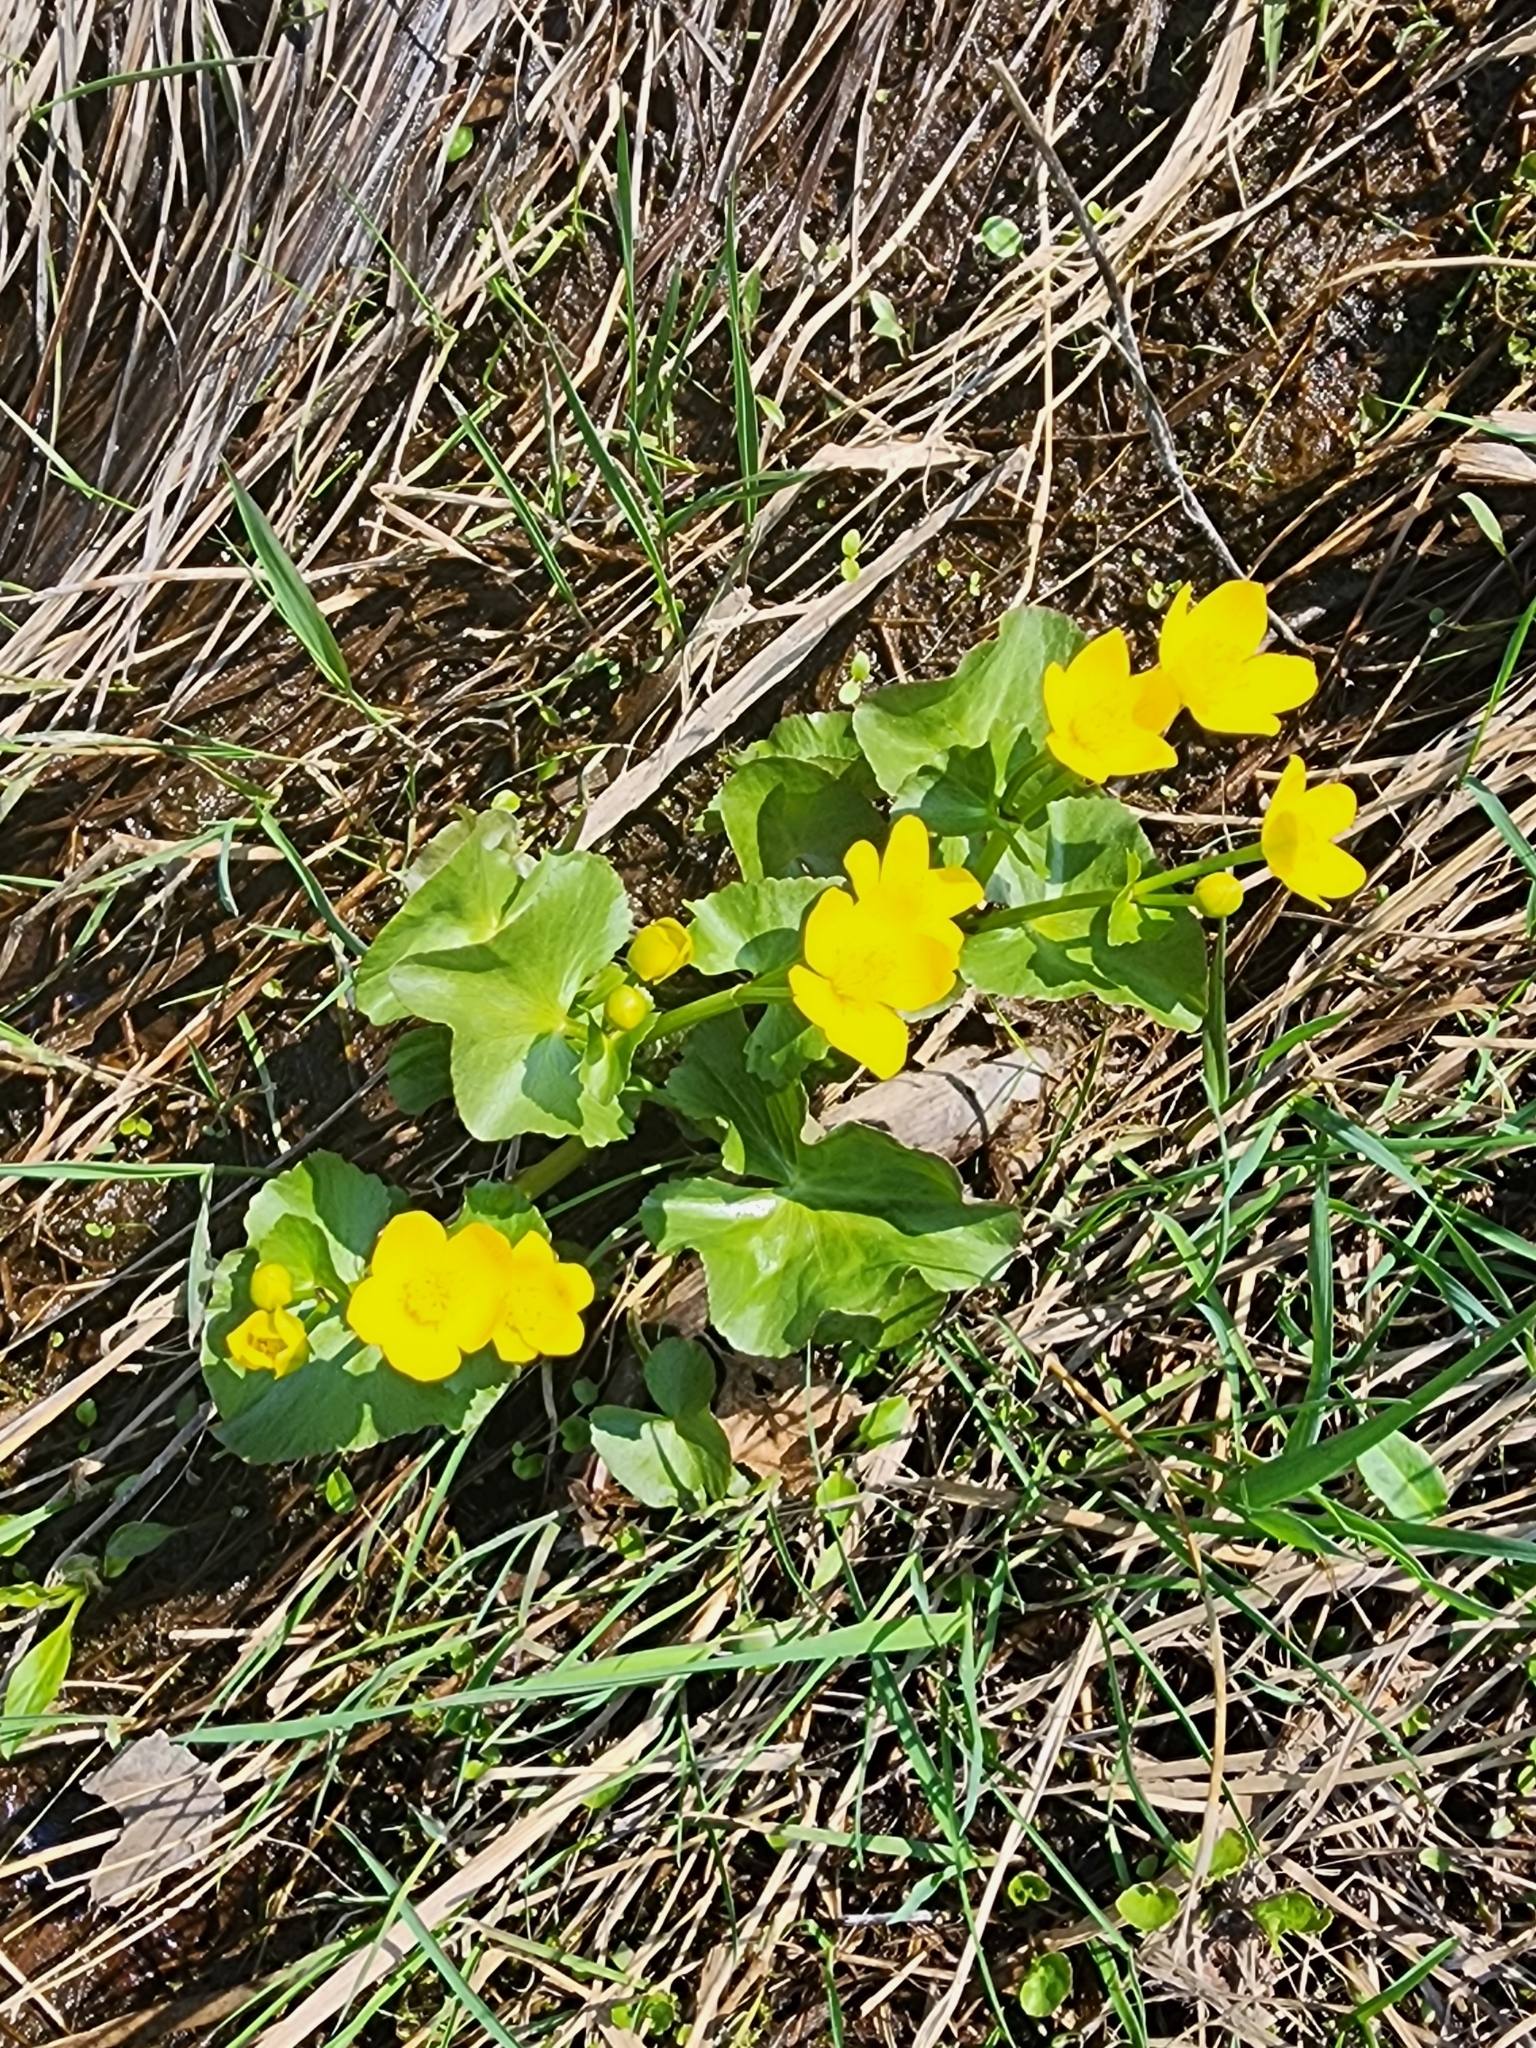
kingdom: Plantae
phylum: Tracheophyta
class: Magnoliopsida
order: Ranunculales
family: Ranunculaceae
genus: Caltha
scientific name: Caltha palustris
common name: Marsh marigold
